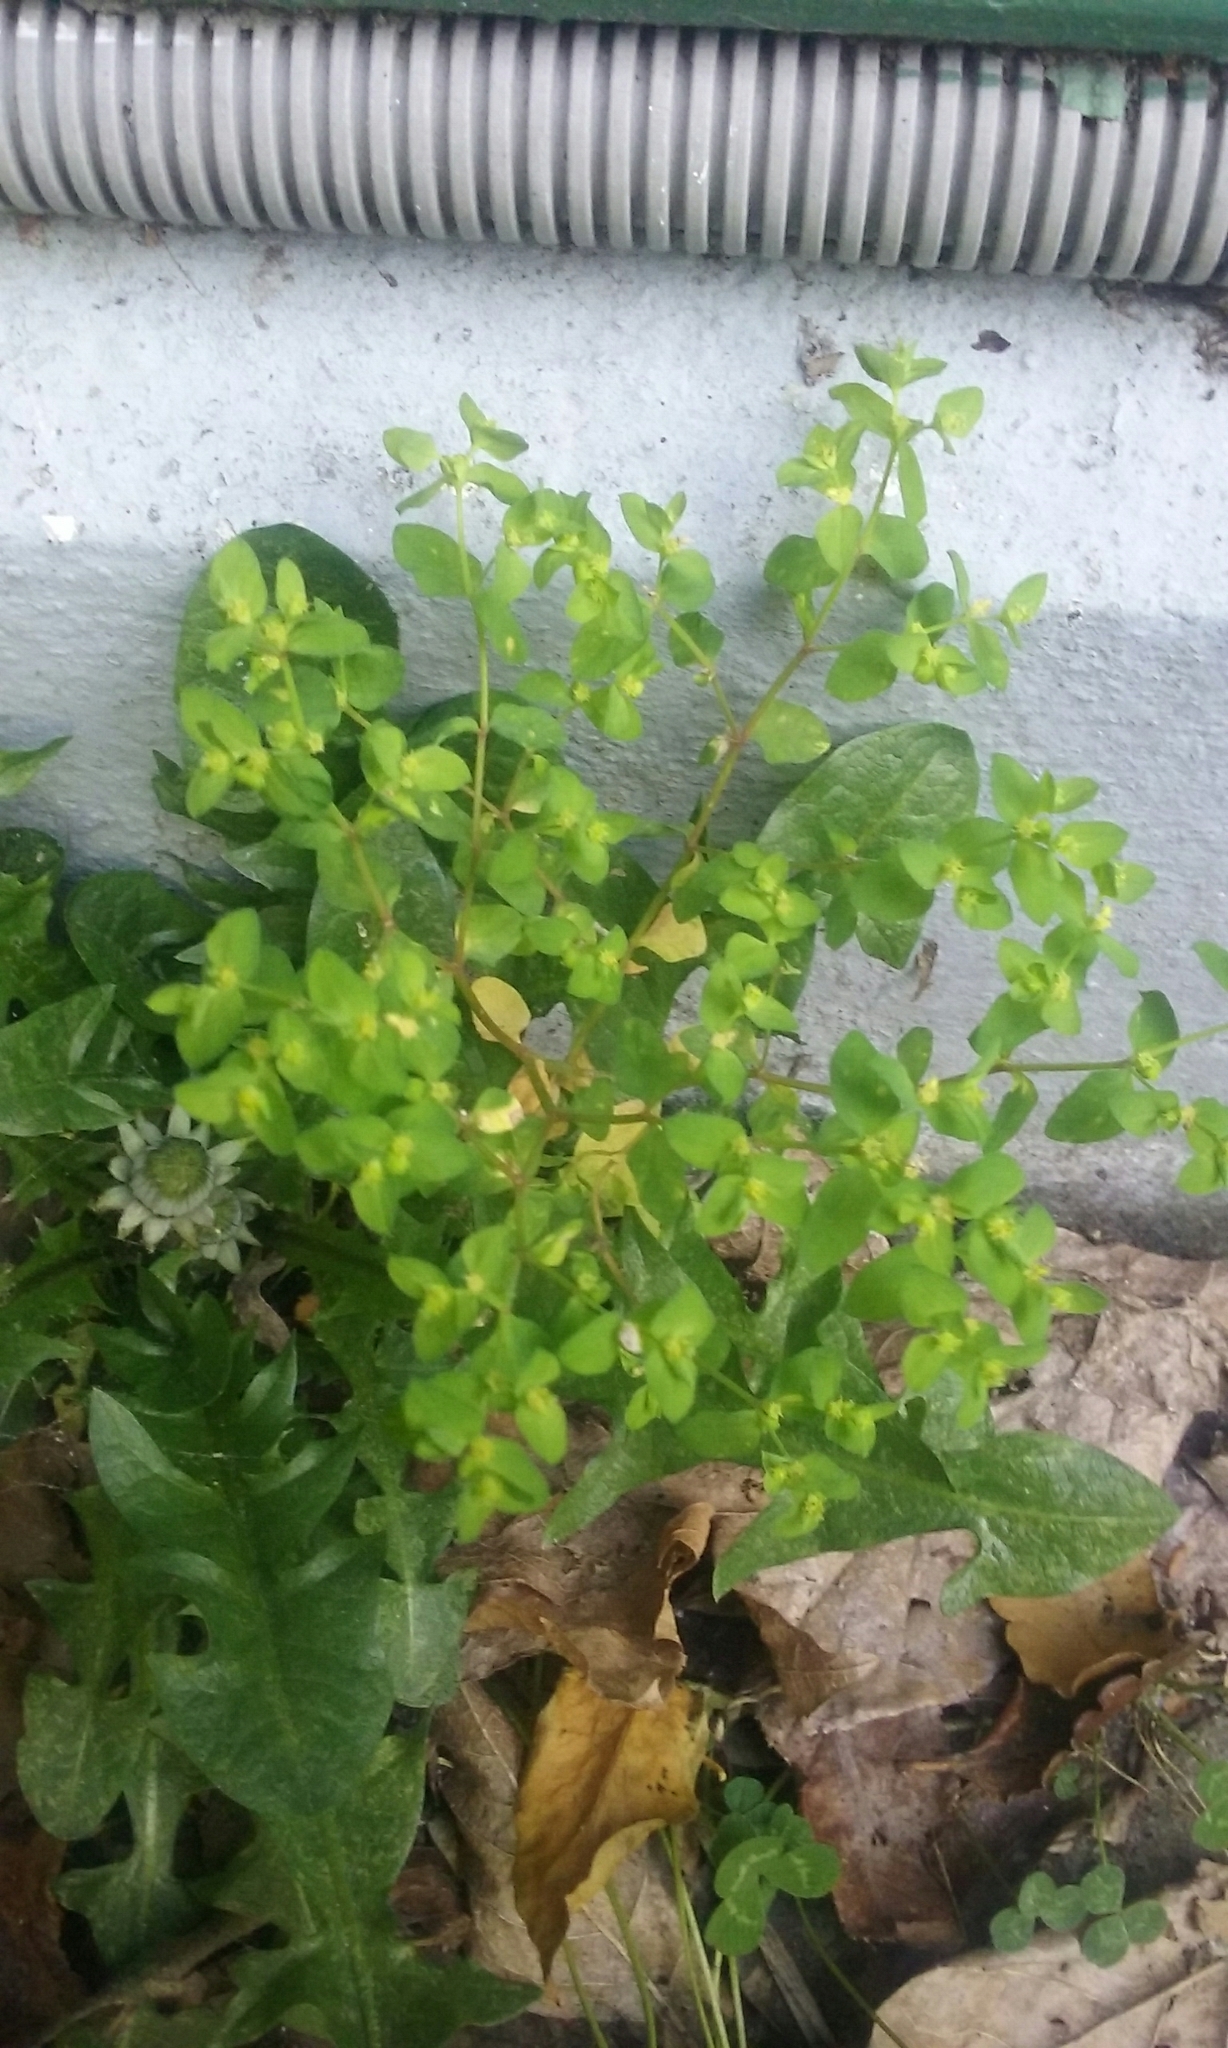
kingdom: Plantae
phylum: Tracheophyta
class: Magnoliopsida
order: Malpighiales
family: Euphorbiaceae
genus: Euphorbia
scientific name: Euphorbia peplus
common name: Petty spurge
